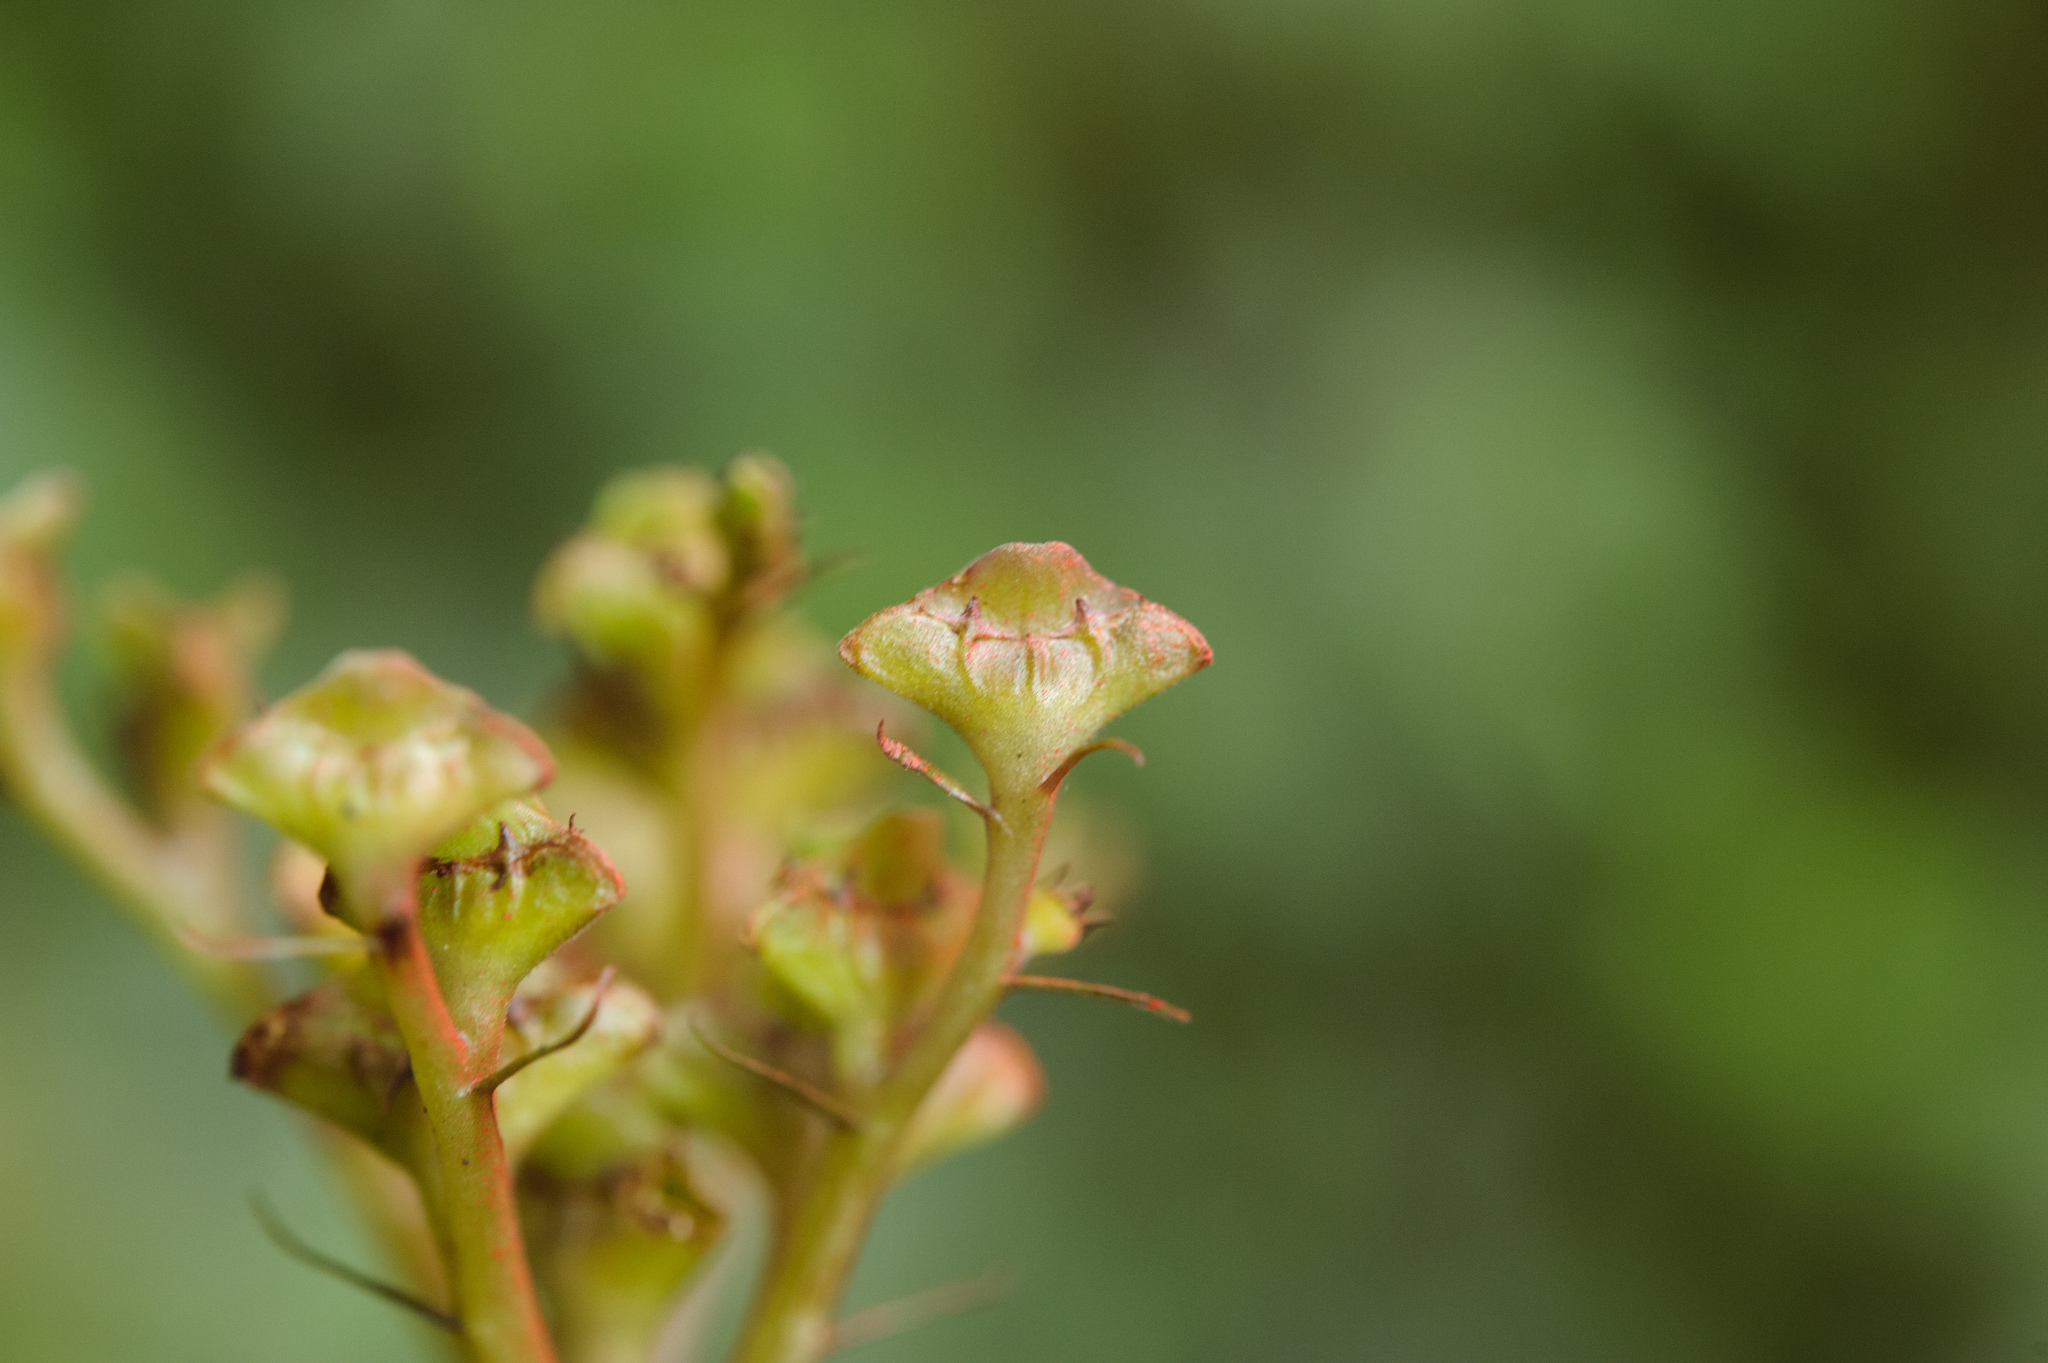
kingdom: Plantae
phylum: Tracheophyta
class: Magnoliopsida
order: Gentianales
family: Rubiaceae
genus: Ophiorrhiza
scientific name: Ophiorrhiza japonica
